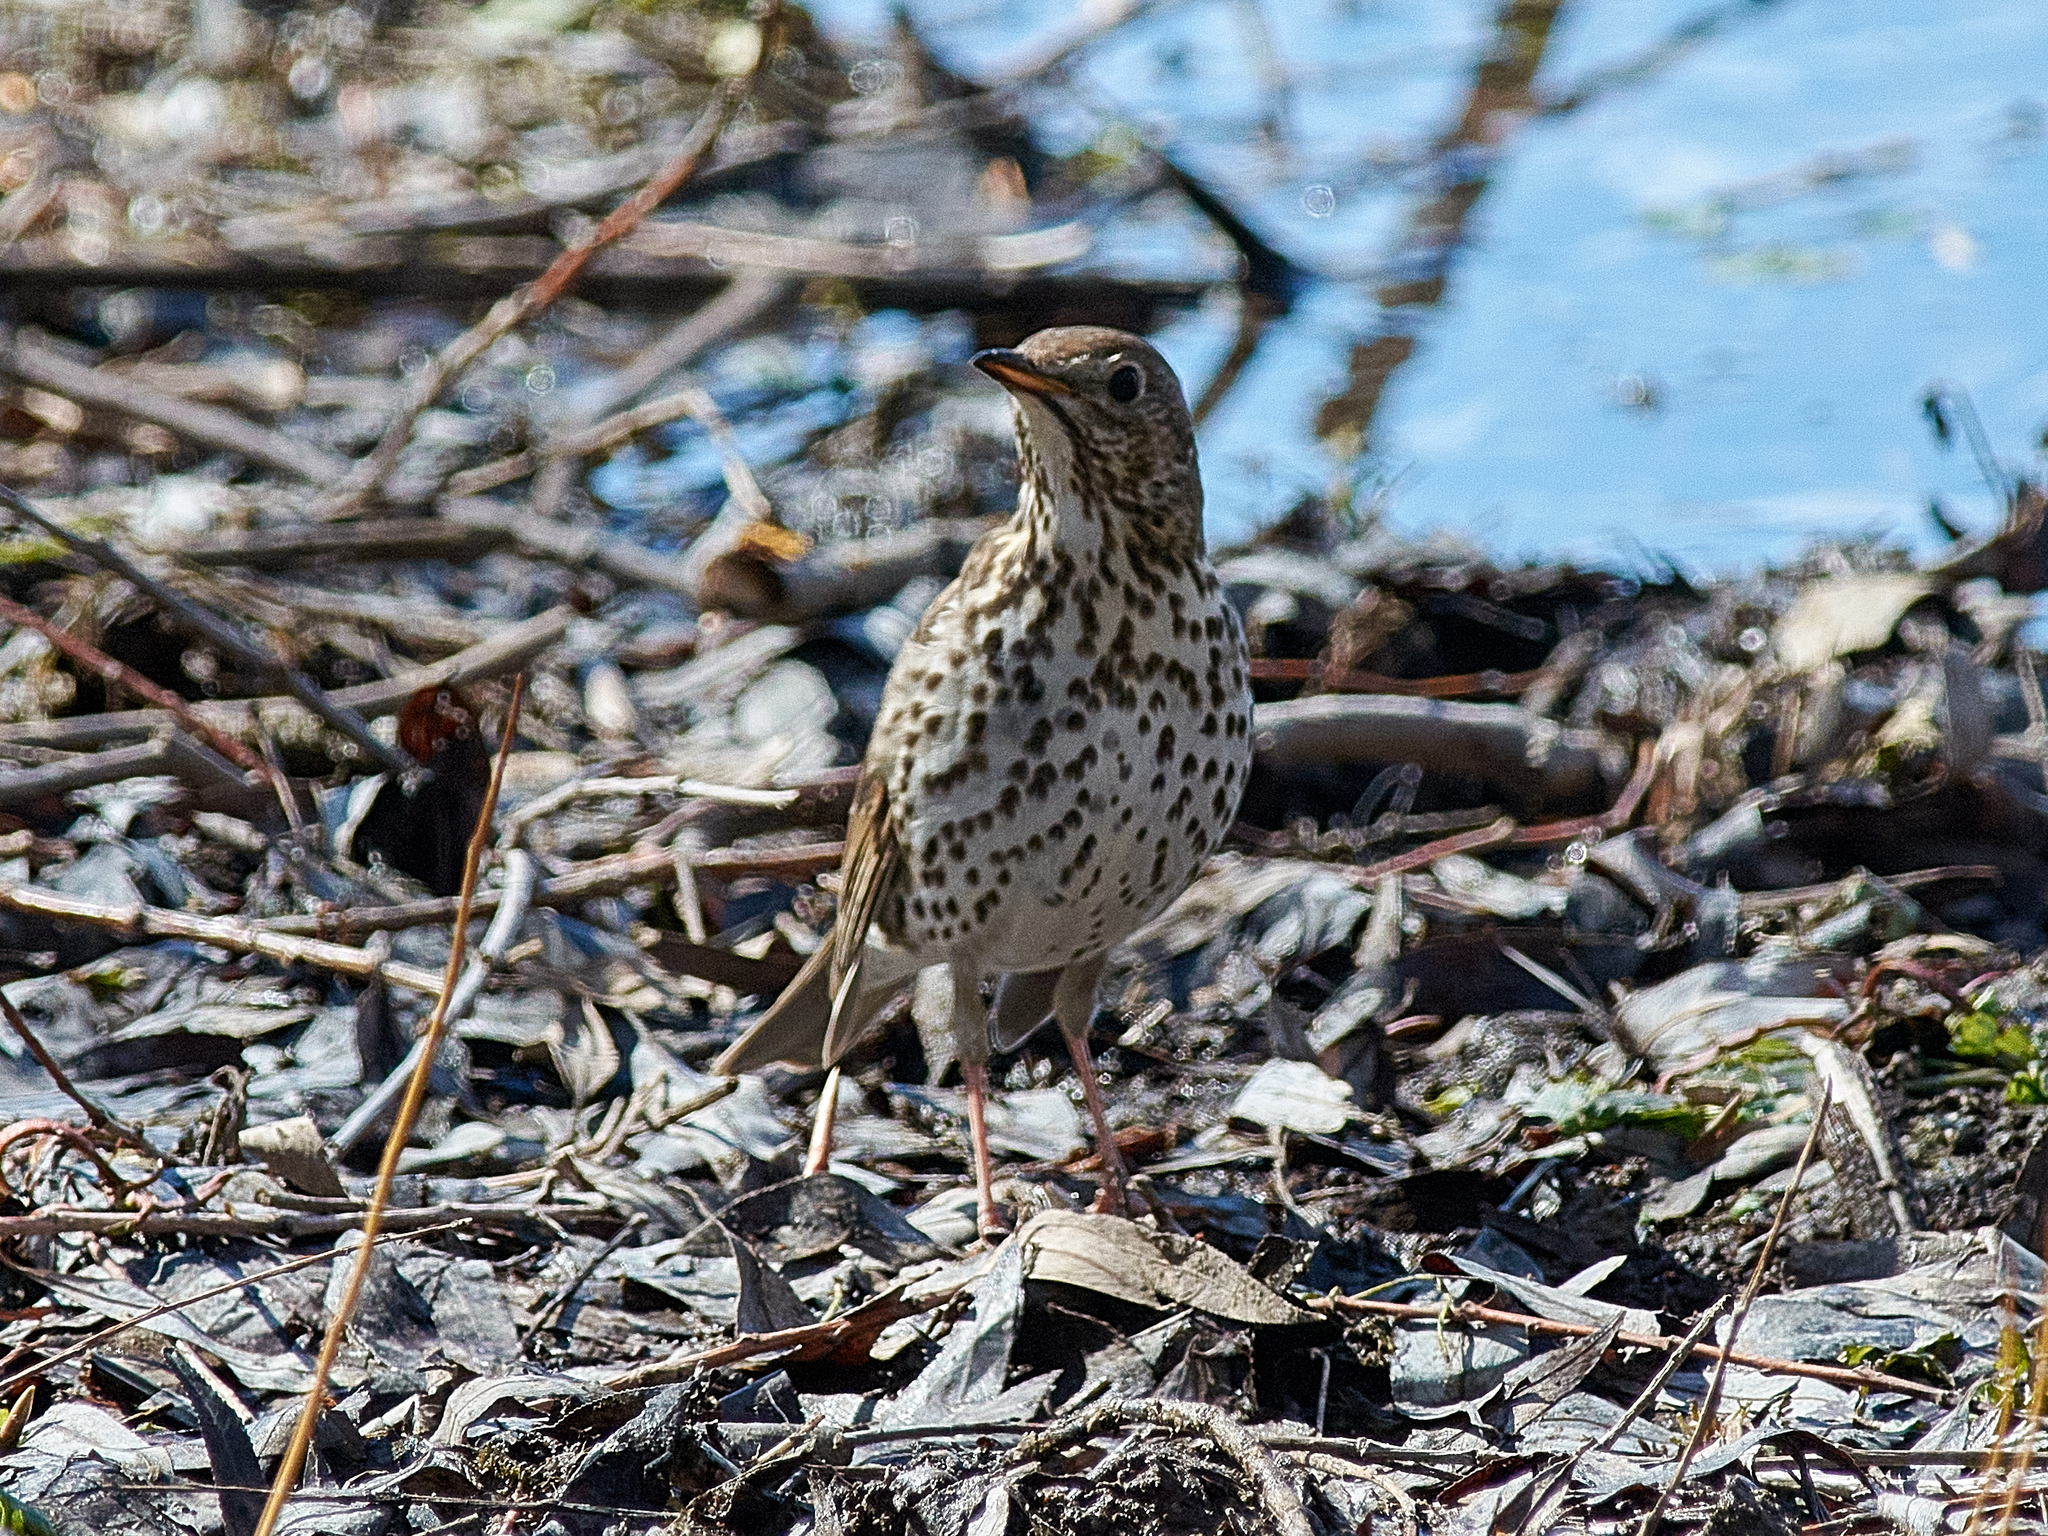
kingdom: Animalia
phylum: Chordata
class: Aves
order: Passeriformes
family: Turdidae
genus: Turdus
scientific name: Turdus philomelos
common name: Song thrush
